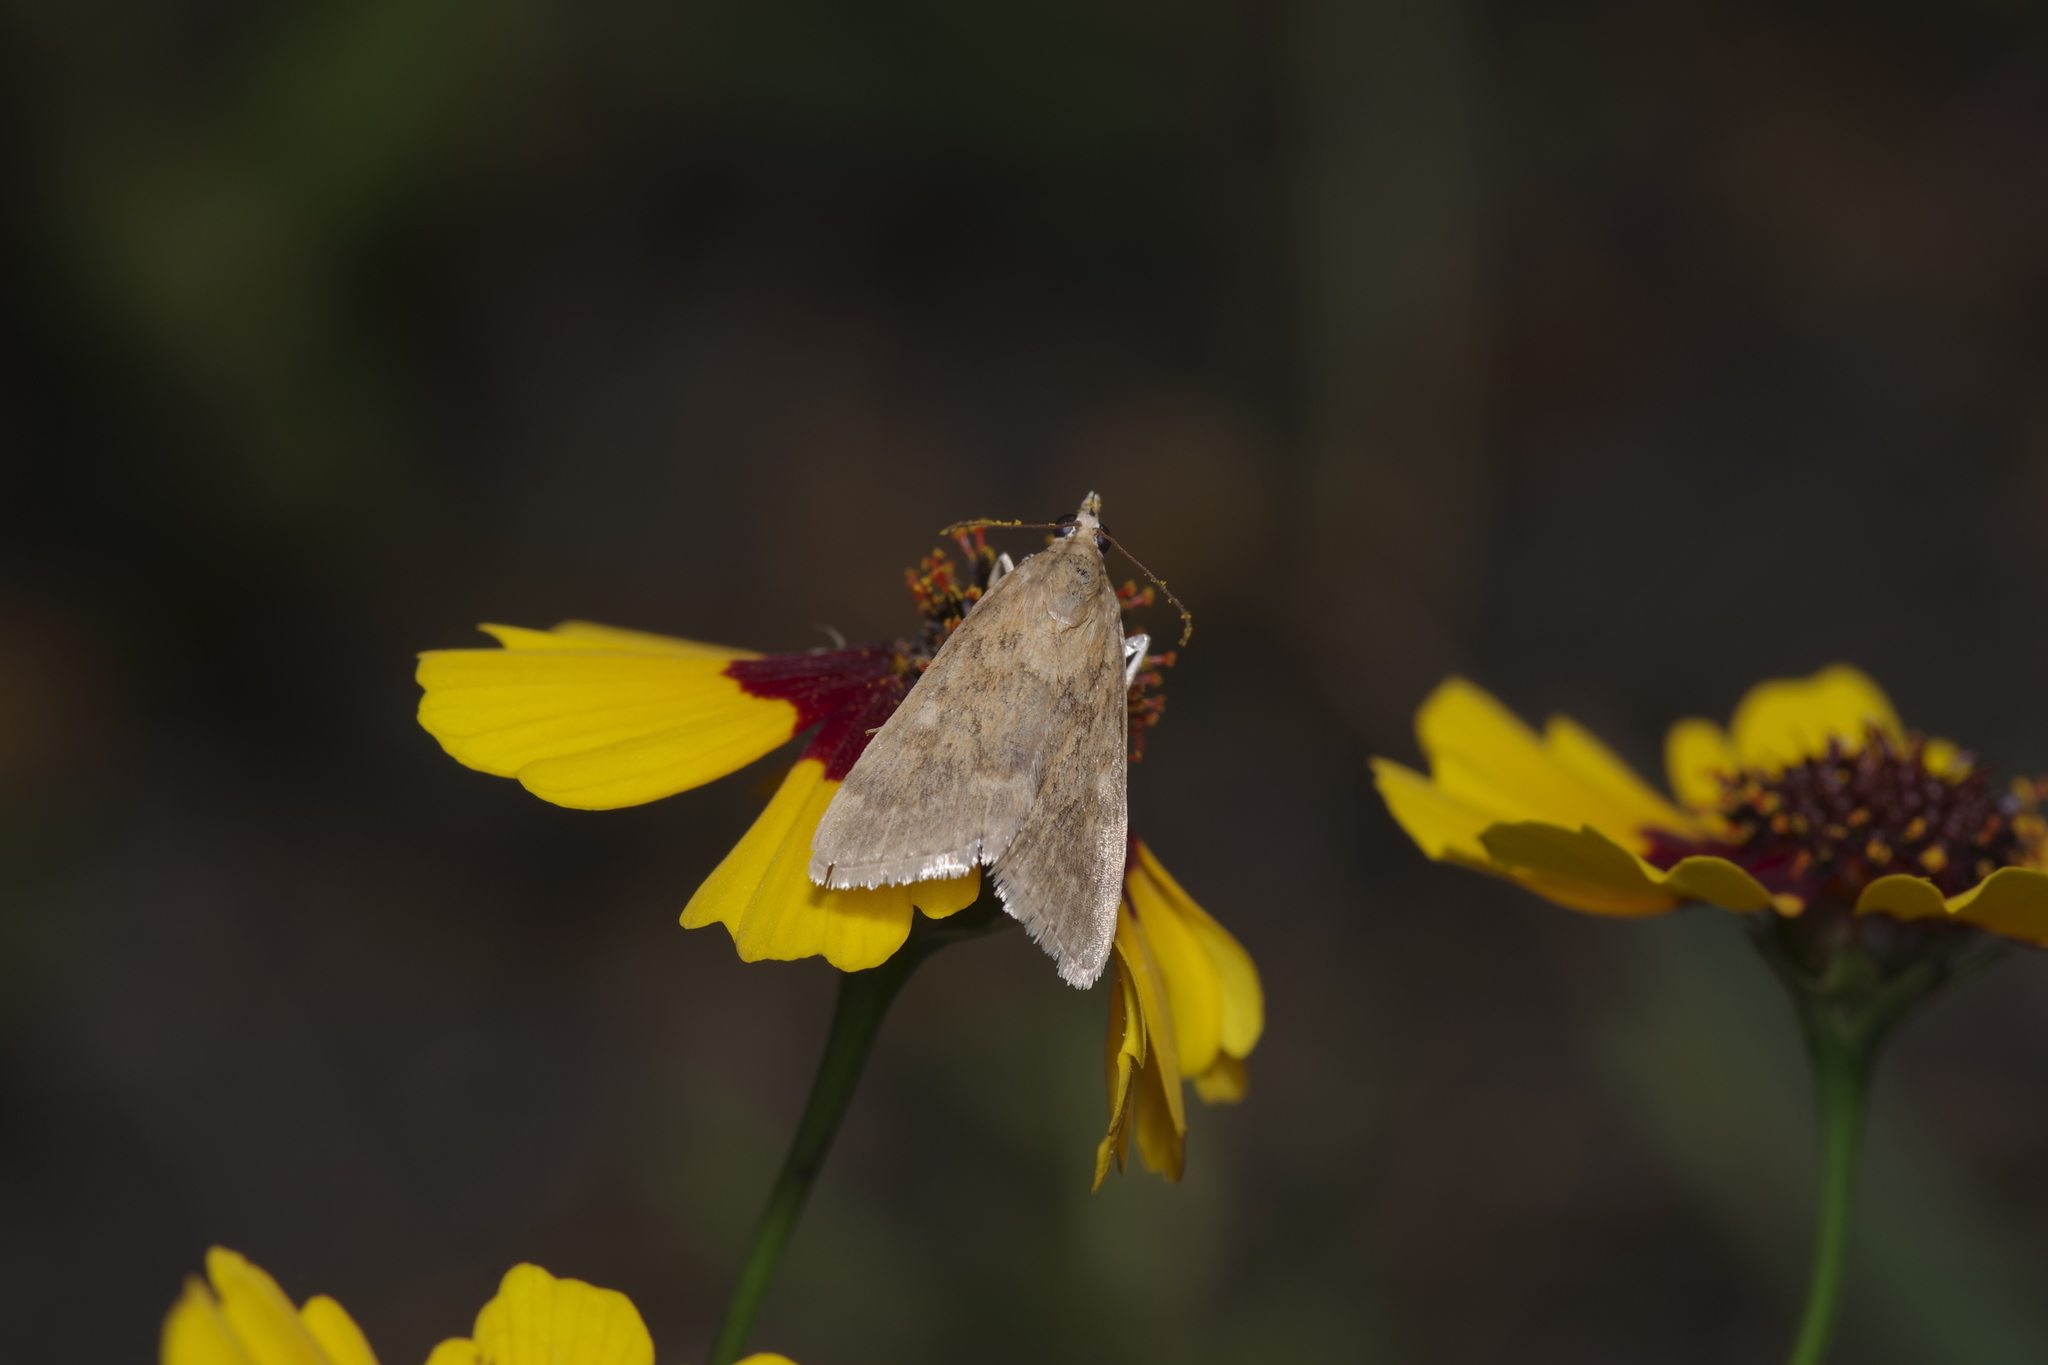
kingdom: Animalia
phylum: Arthropoda
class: Insecta
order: Lepidoptera
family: Crambidae
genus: Achyra
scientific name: Achyra rantalis
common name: Garden webworm
